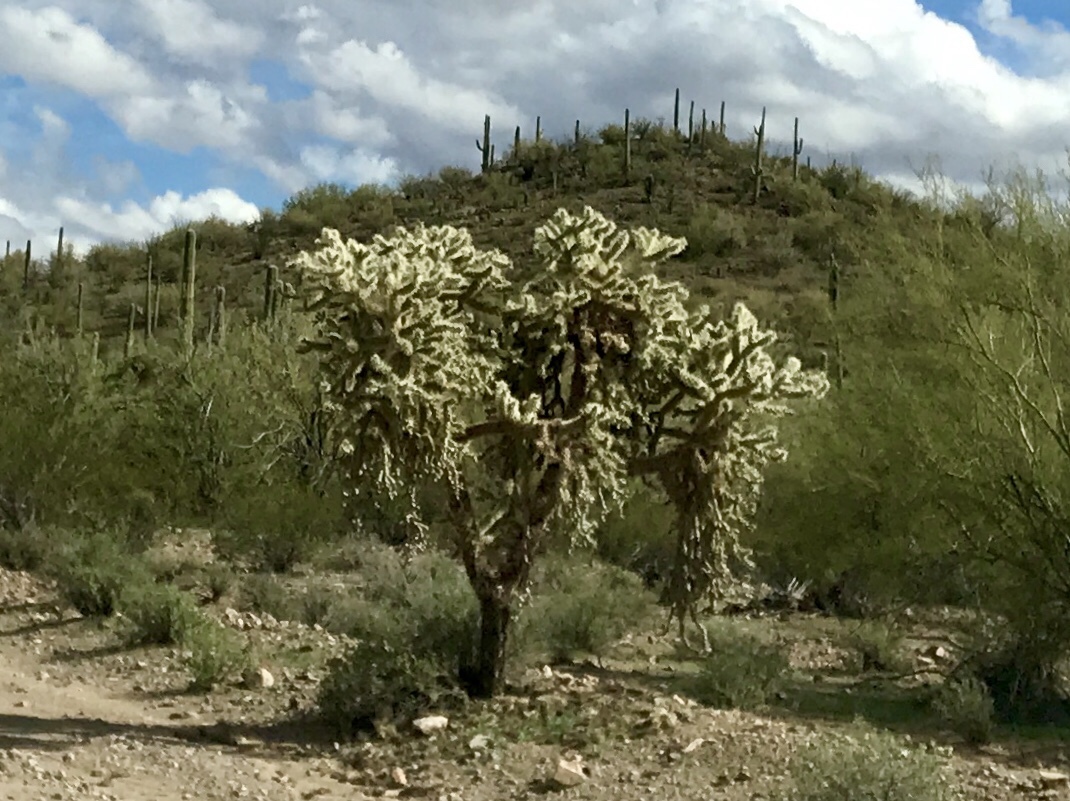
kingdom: Plantae
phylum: Tracheophyta
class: Magnoliopsida
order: Caryophyllales
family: Cactaceae
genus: Cylindropuntia
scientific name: Cylindropuntia fulgida
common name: Jumping cholla
